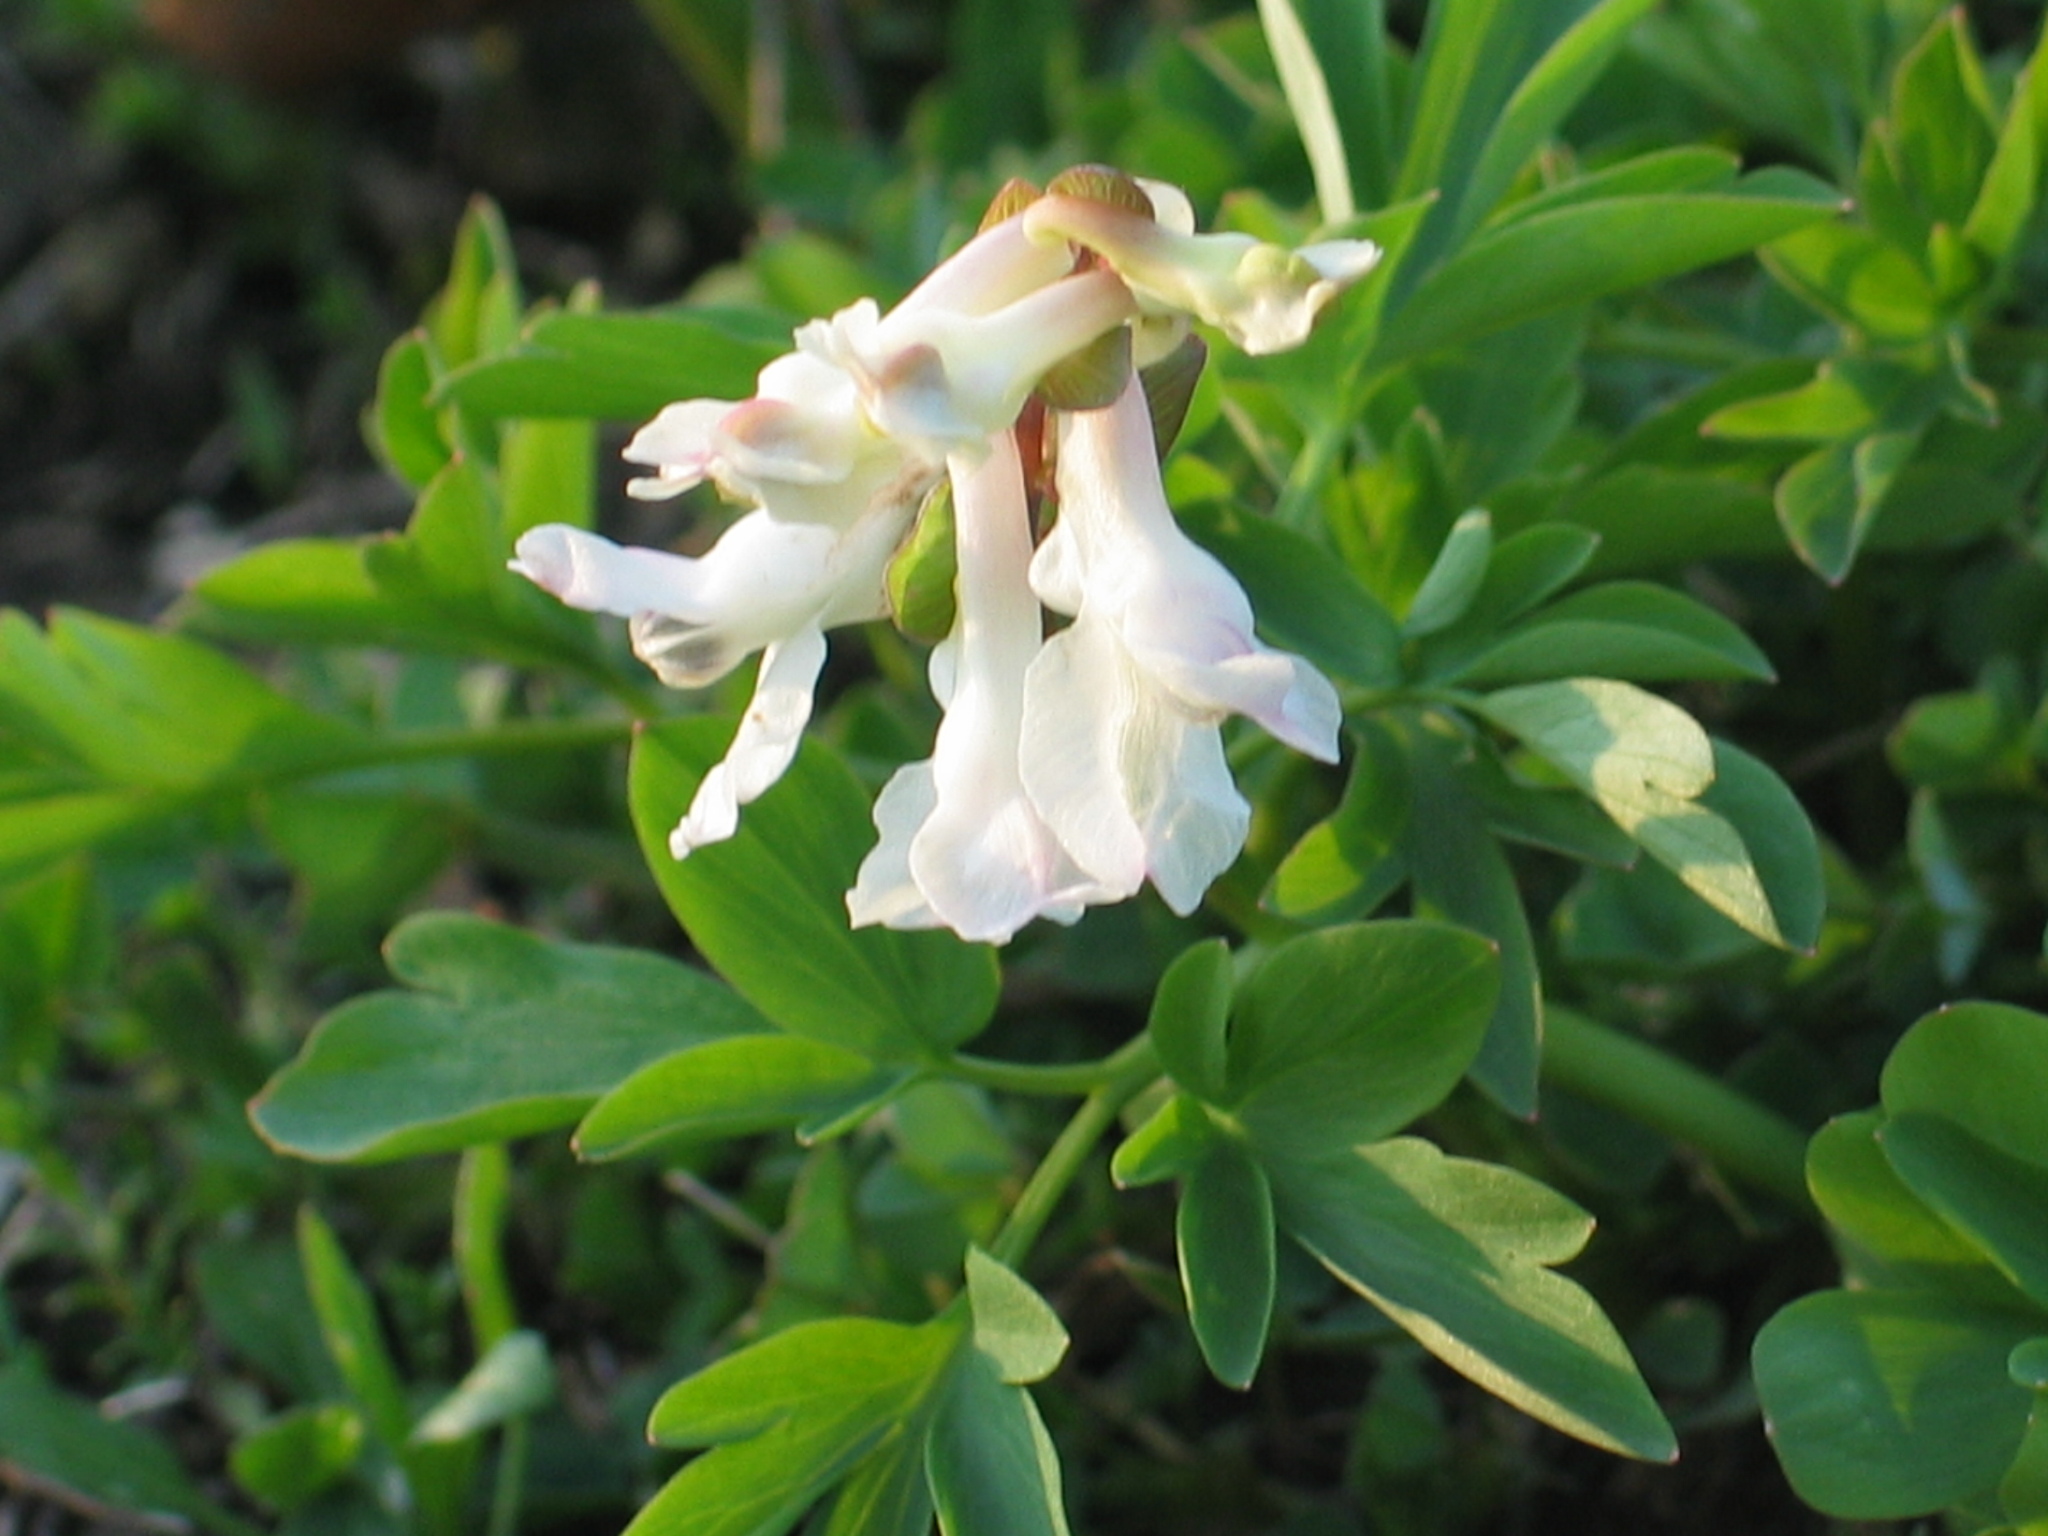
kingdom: Plantae
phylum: Tracheophyta
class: Magnoliopsida
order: Ranunculales
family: Papaveraceae
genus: Corydalis
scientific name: Corydalis cava
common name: Hollowroot
